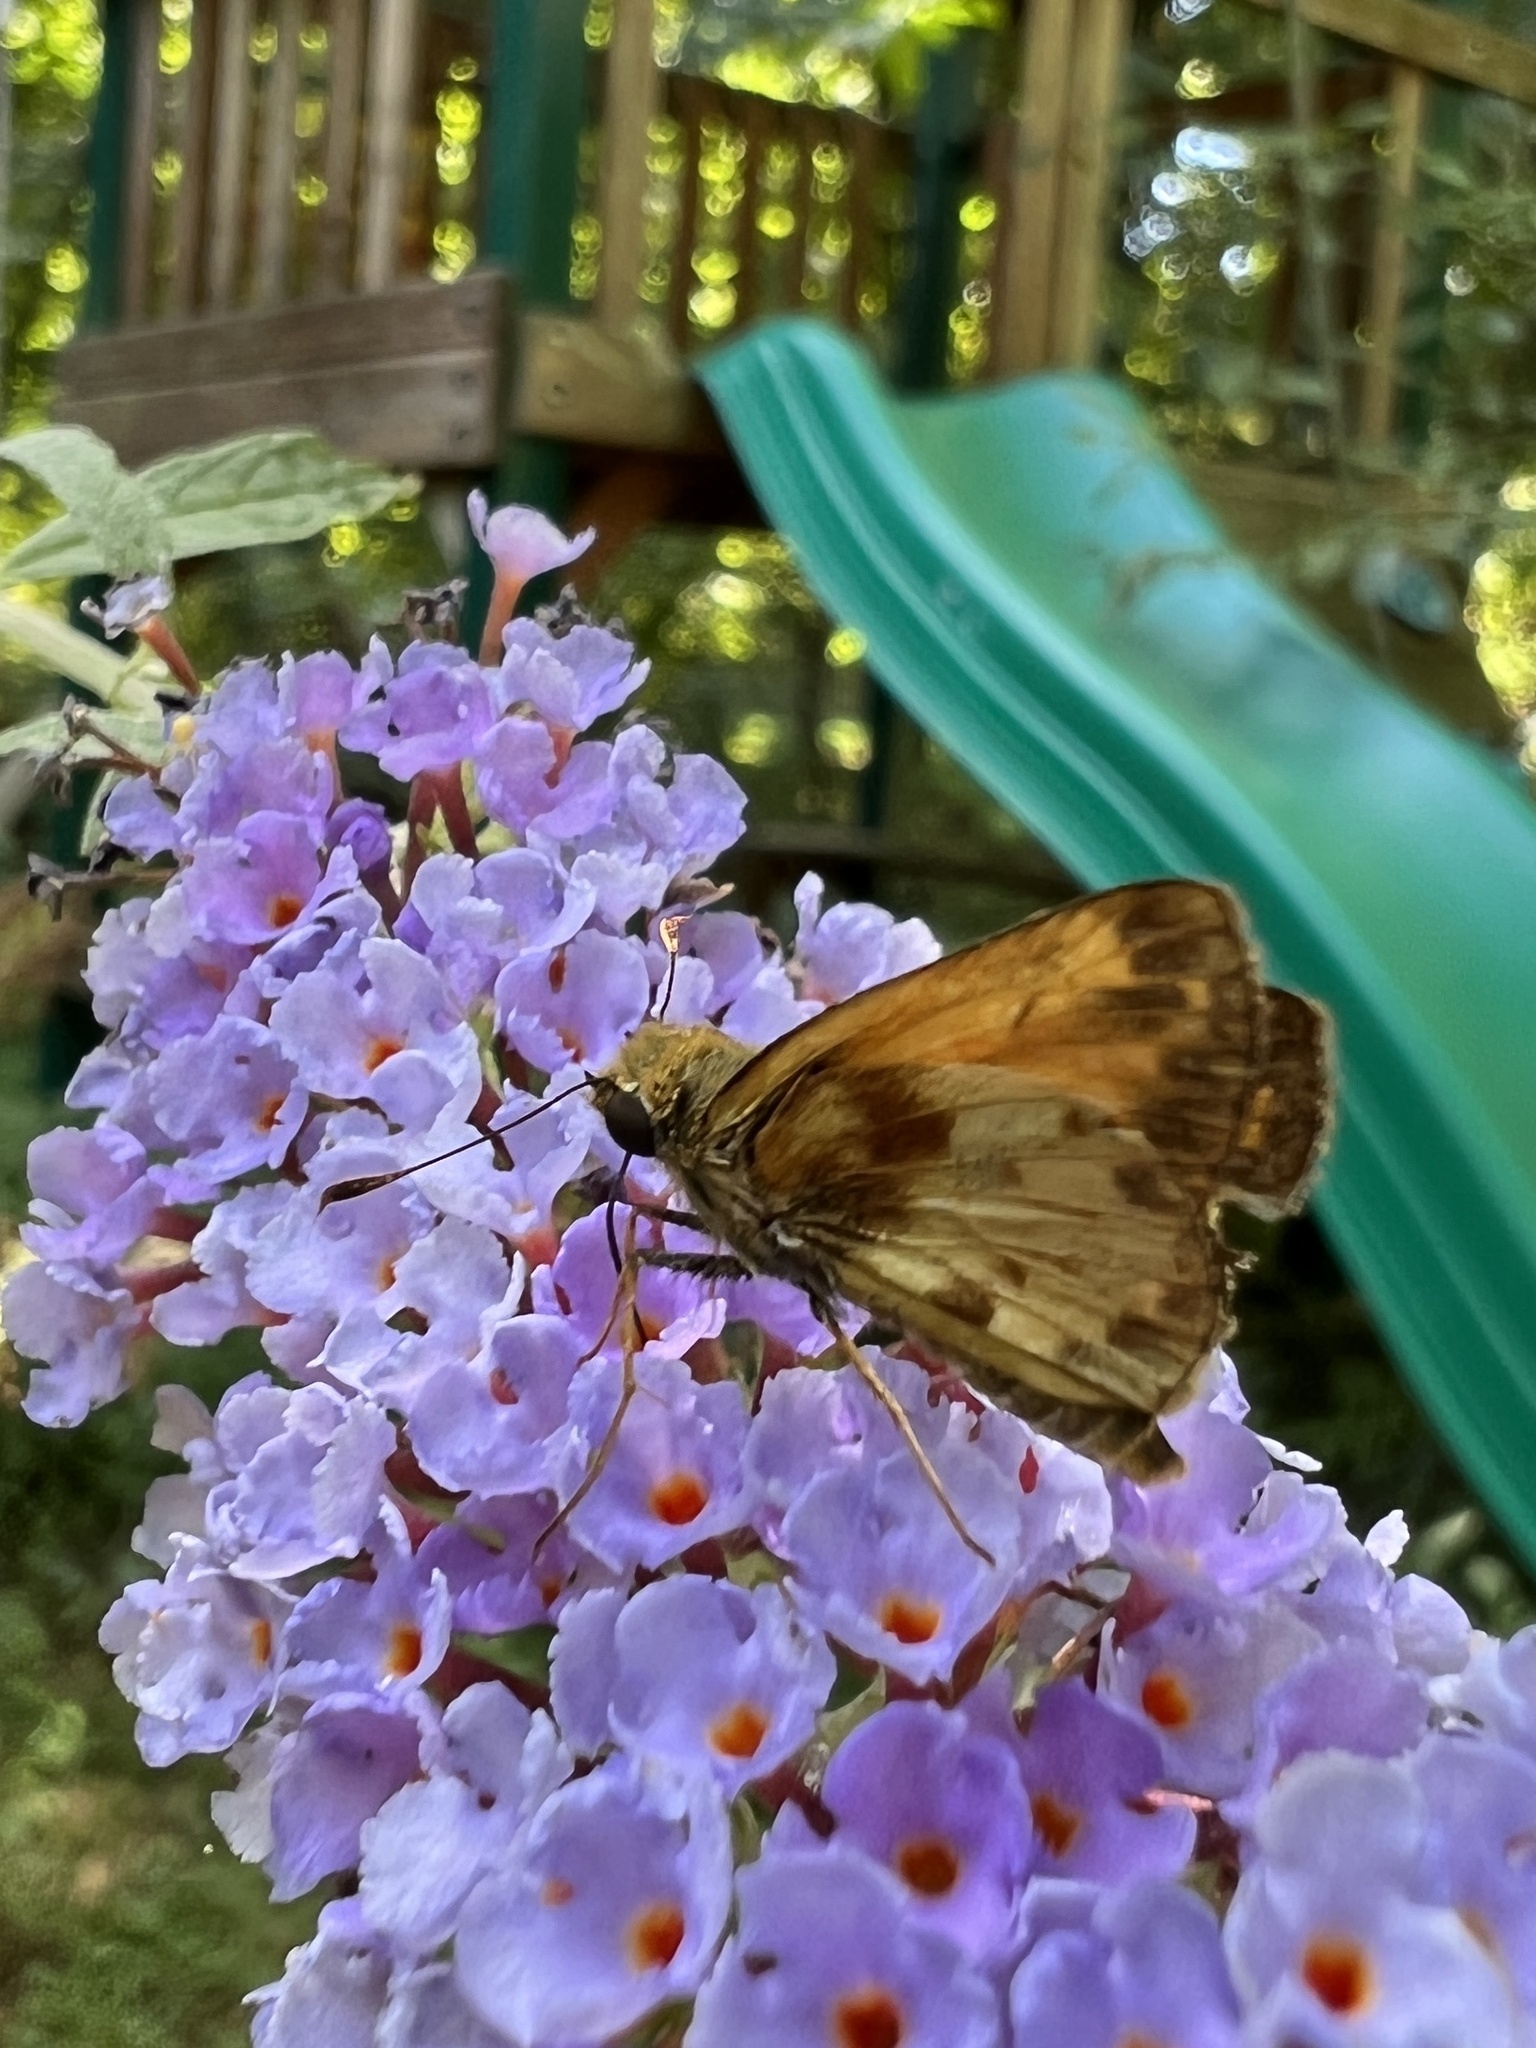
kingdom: Animalia
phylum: Arthropoda
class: Insecta
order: Lepidoptera
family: Hesperiidae
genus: Lon
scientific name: Lon zabulon
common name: Zabulon skipper
